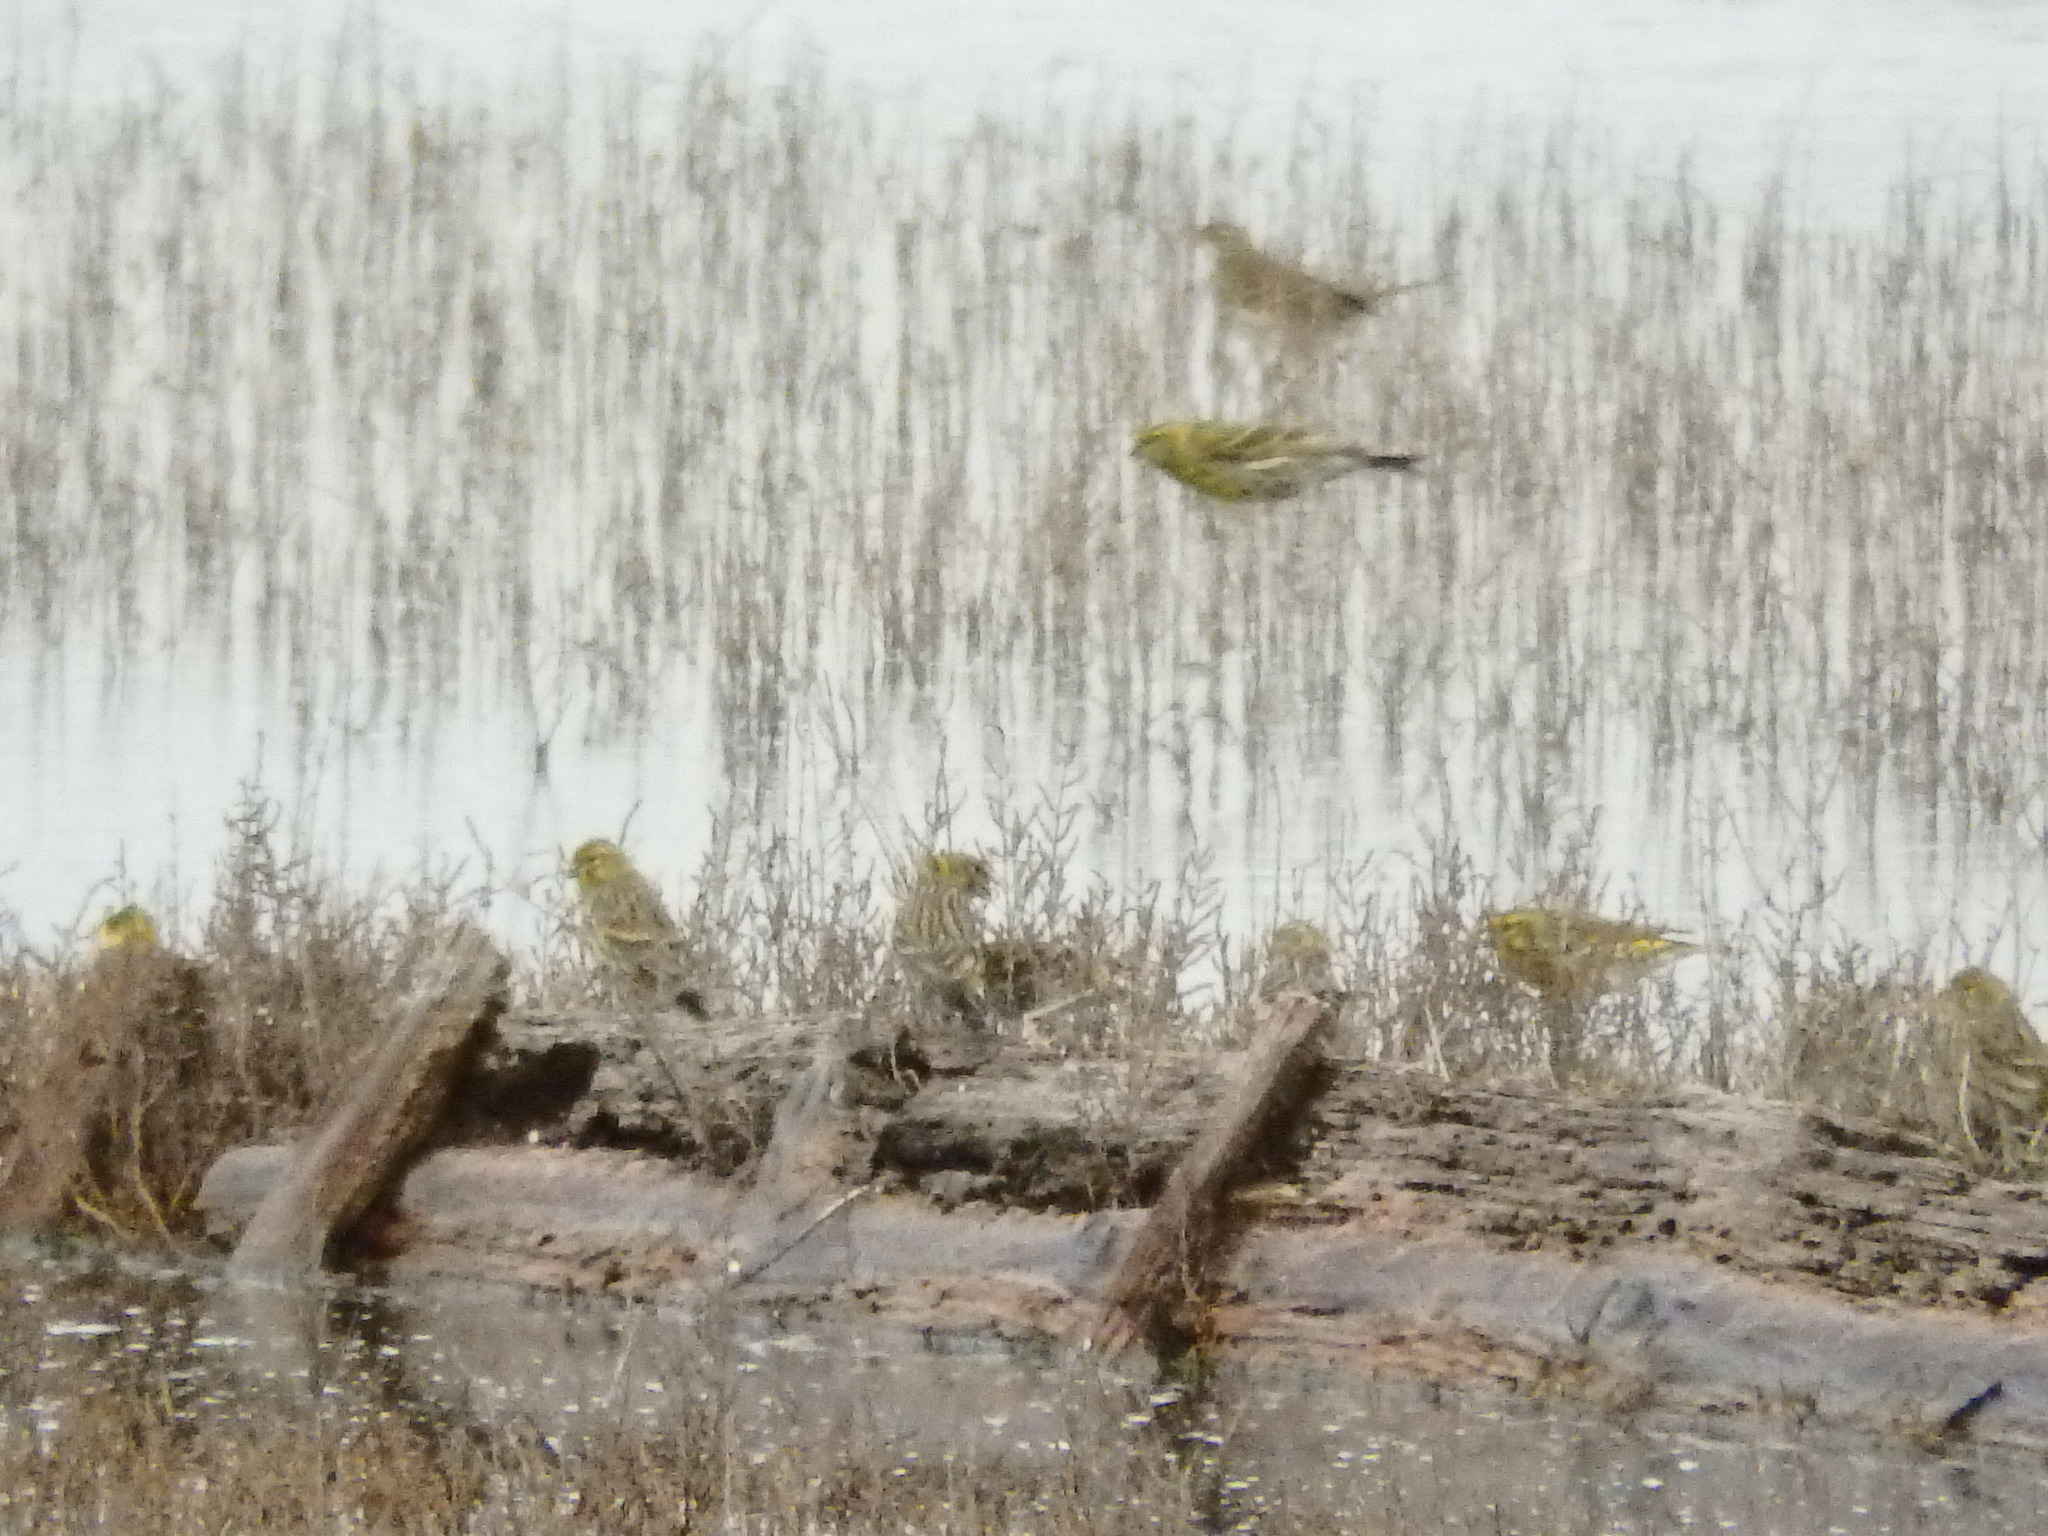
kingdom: Animalia
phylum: Chordata
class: Aves
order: Passeriformes
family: Fringillidae
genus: Serinus
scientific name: Serinus serinus
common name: European serin
